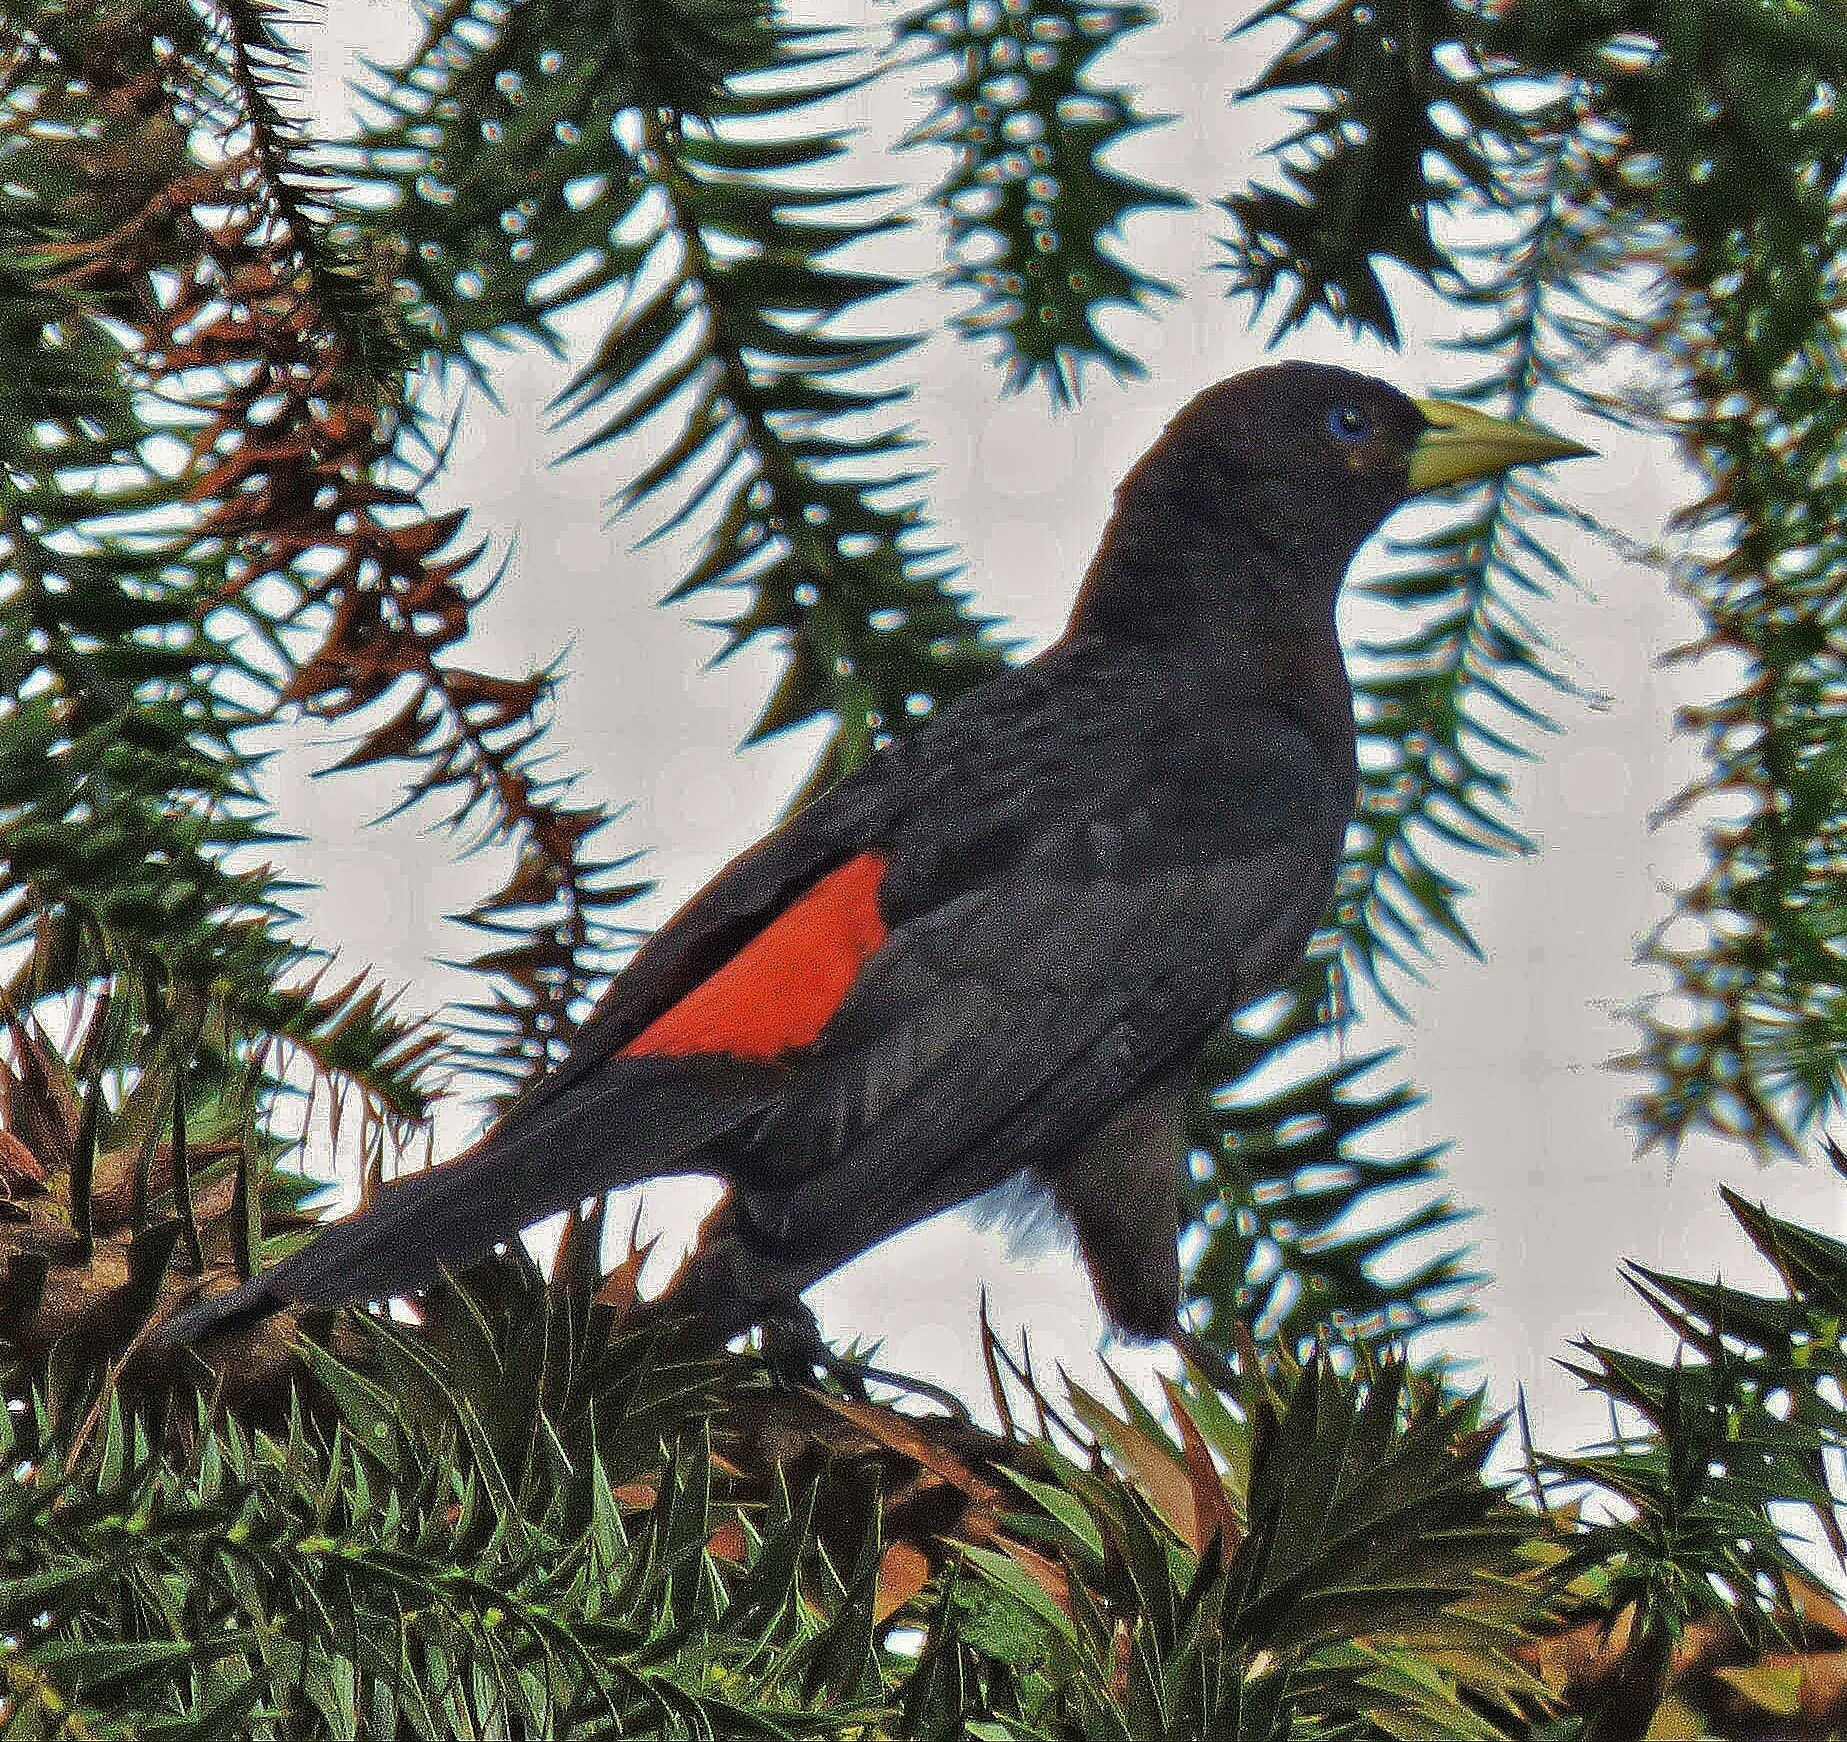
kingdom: Animalia
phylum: Chordata
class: Aves
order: Passeriformes
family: Icteridae
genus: Cacicus
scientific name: Cacicus haemorrhous
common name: Red-rumped cacique
